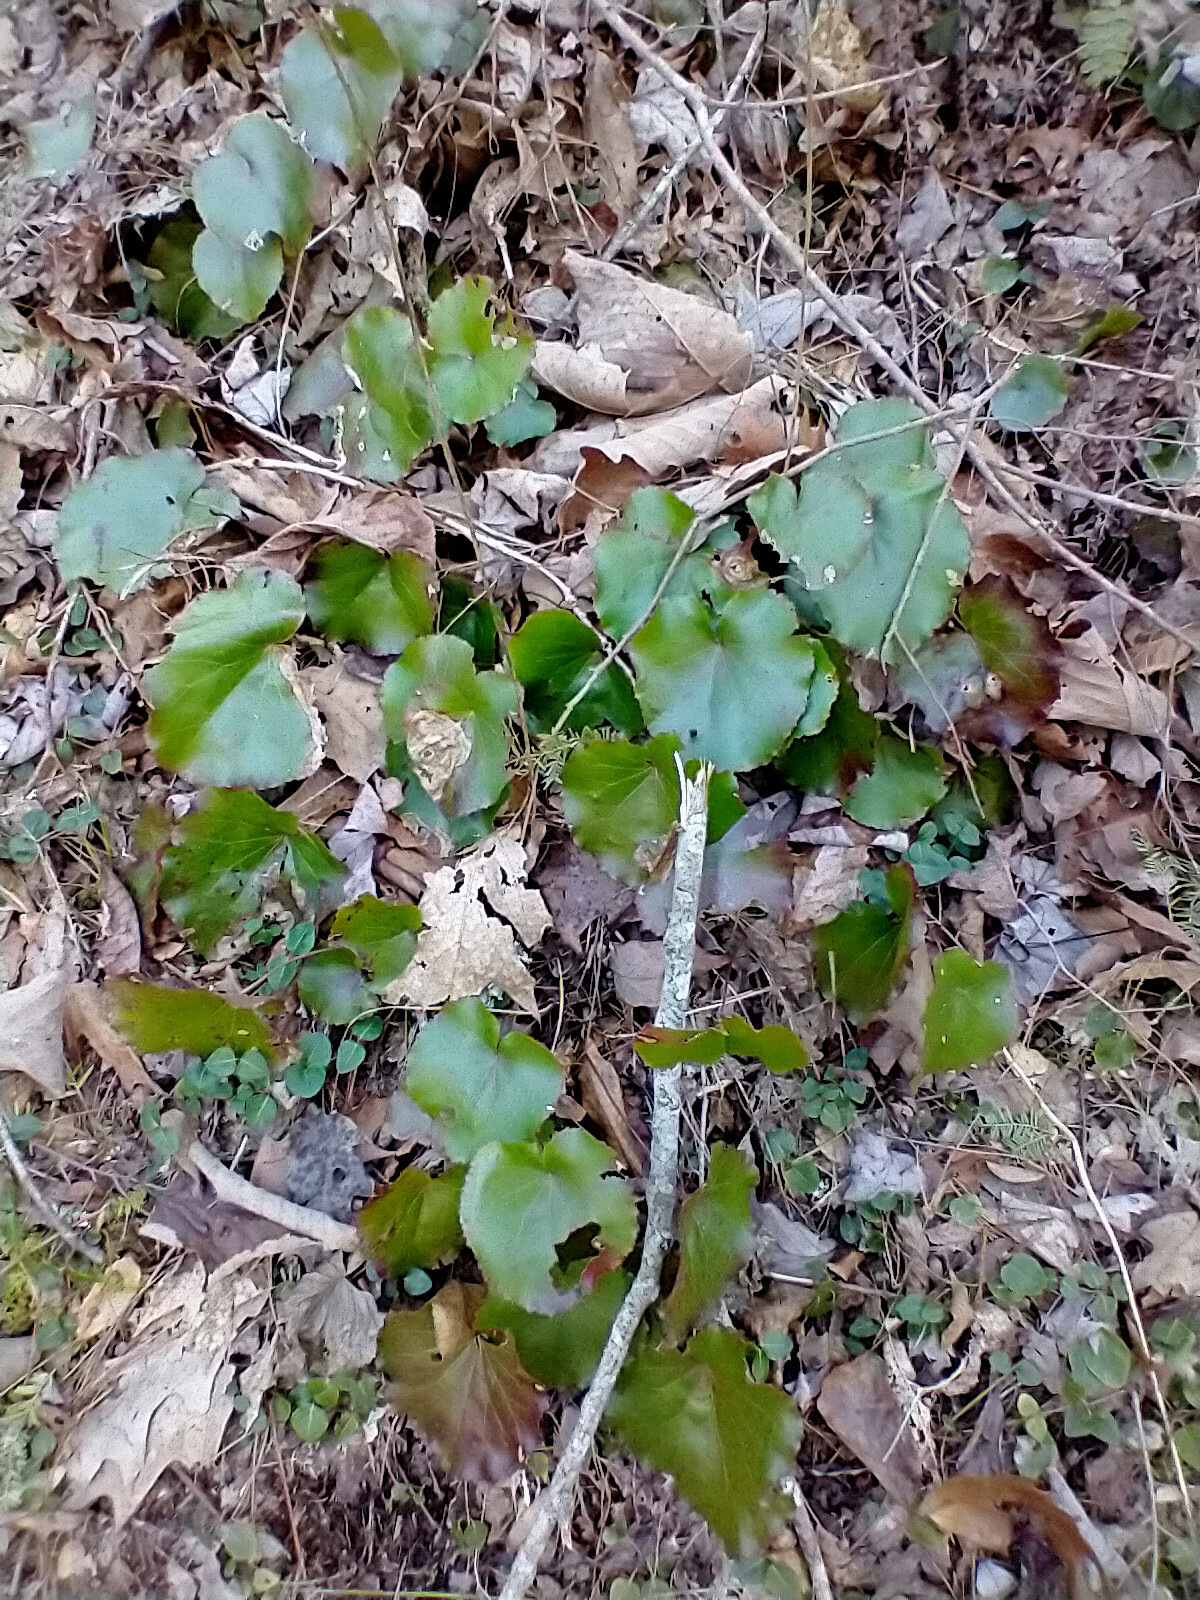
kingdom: Plantae
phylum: Tracheophyta
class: Magnoliopsida
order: Ericales
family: Diapensiaceae
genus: Galax
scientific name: Galax urceolata
